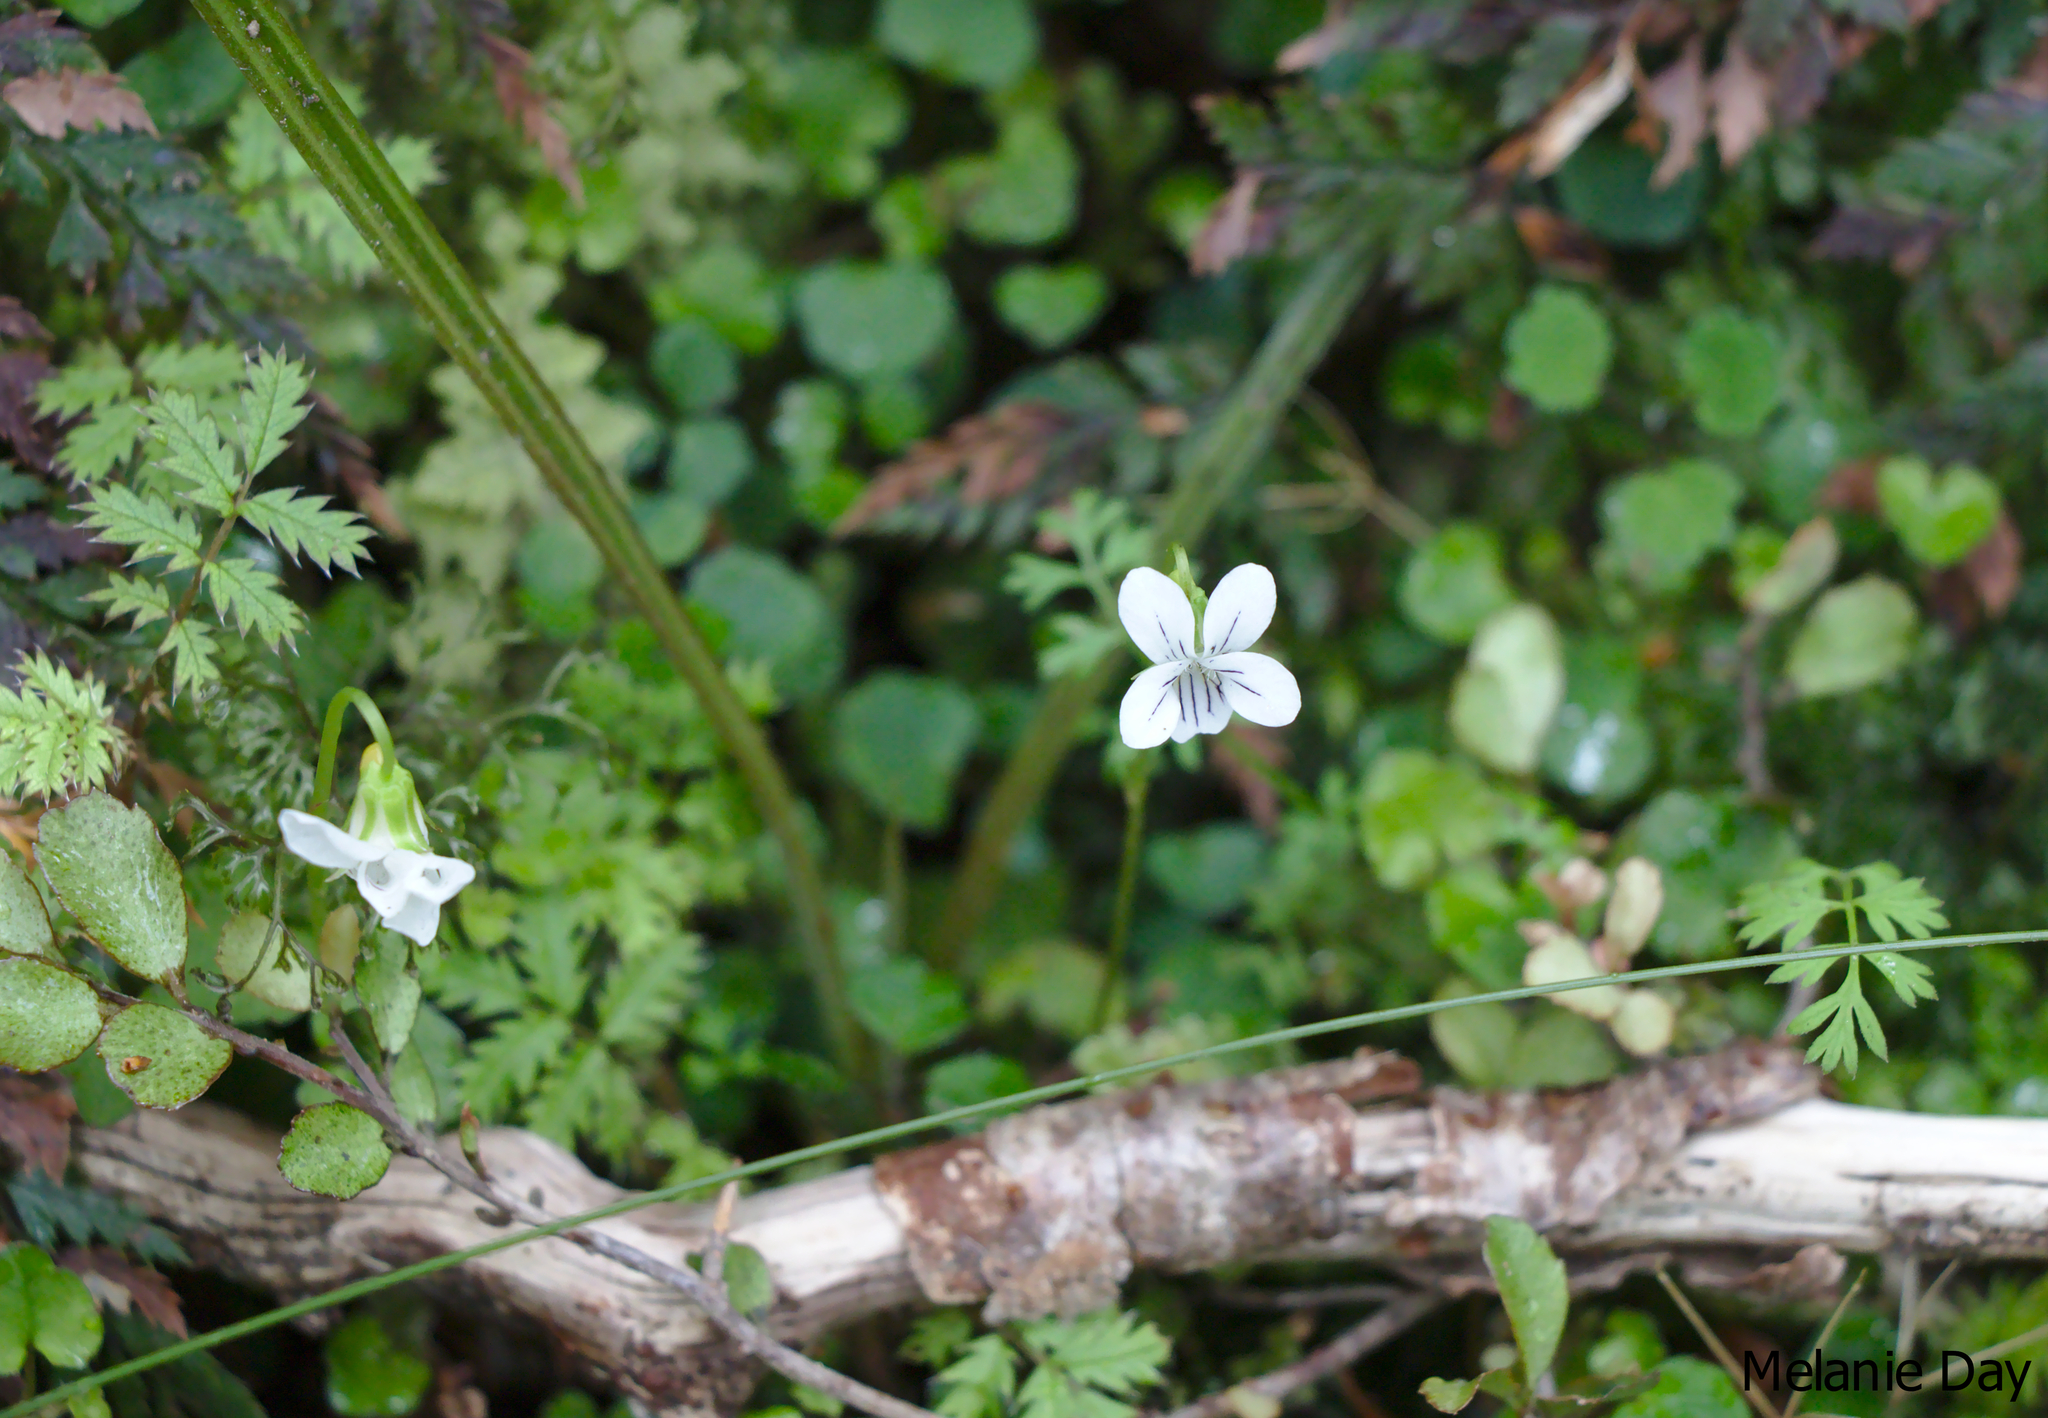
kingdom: Plantae
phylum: Tracheophyta
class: Magnoliopsida
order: Malpighiales
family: Violaceae
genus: Viola
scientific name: Viola filicaulis
